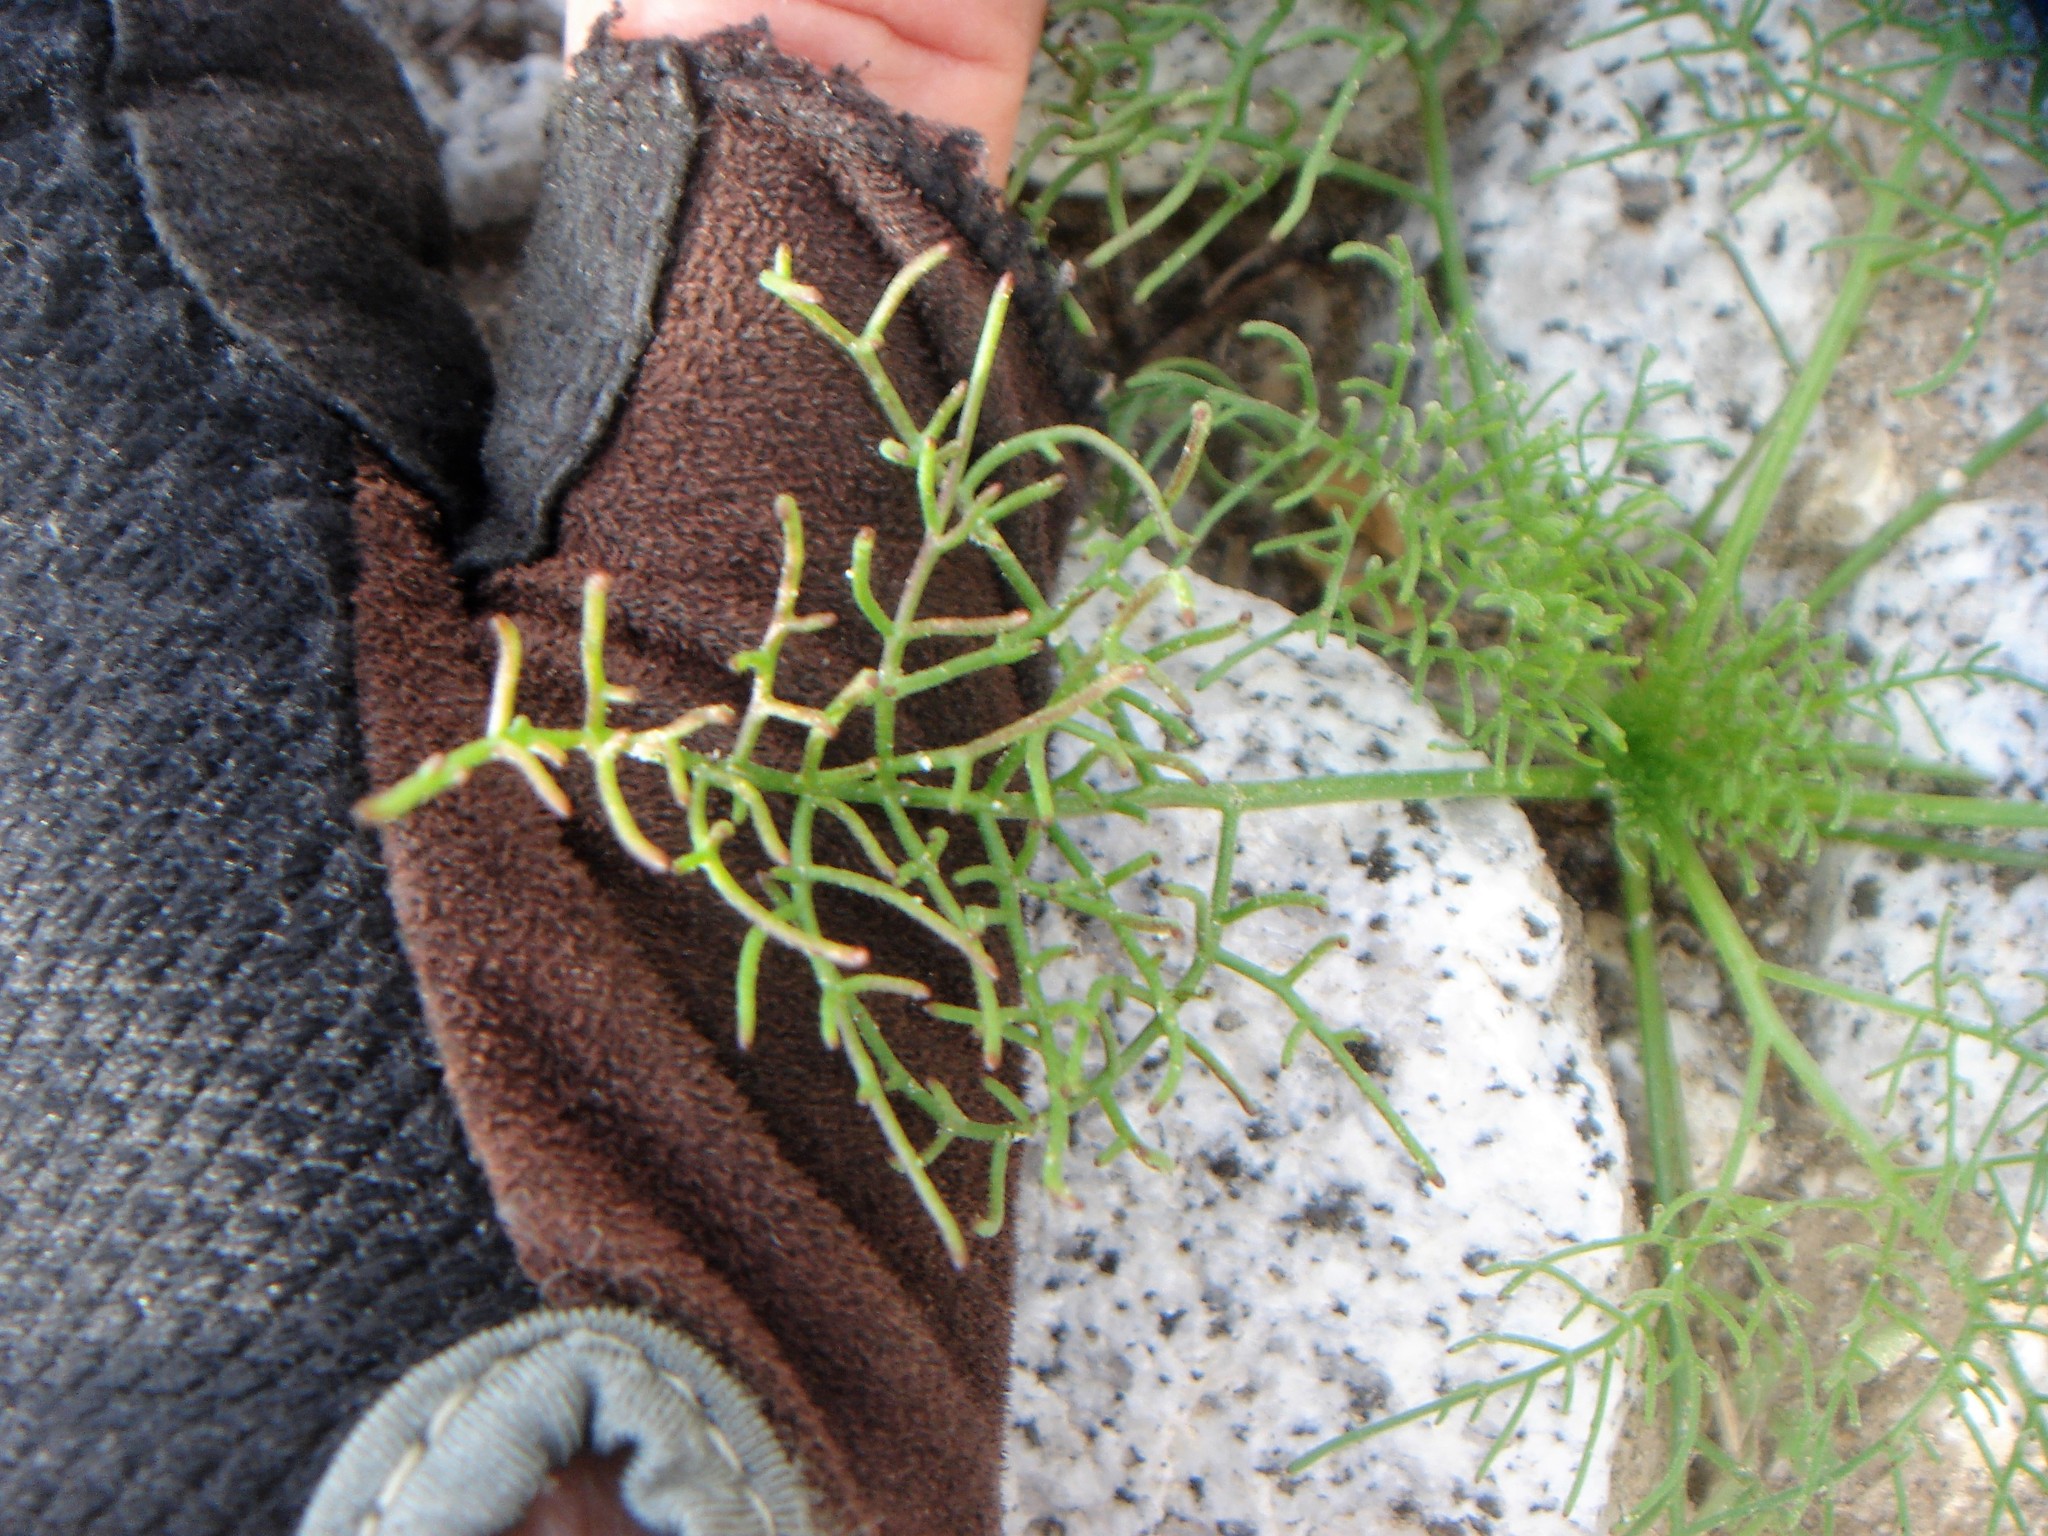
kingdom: Plantae
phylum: Tracheophyta
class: Magnoliopsida
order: Asterales
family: Asteraceae
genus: Chaenactis
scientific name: Chaenactis carphoclinia
